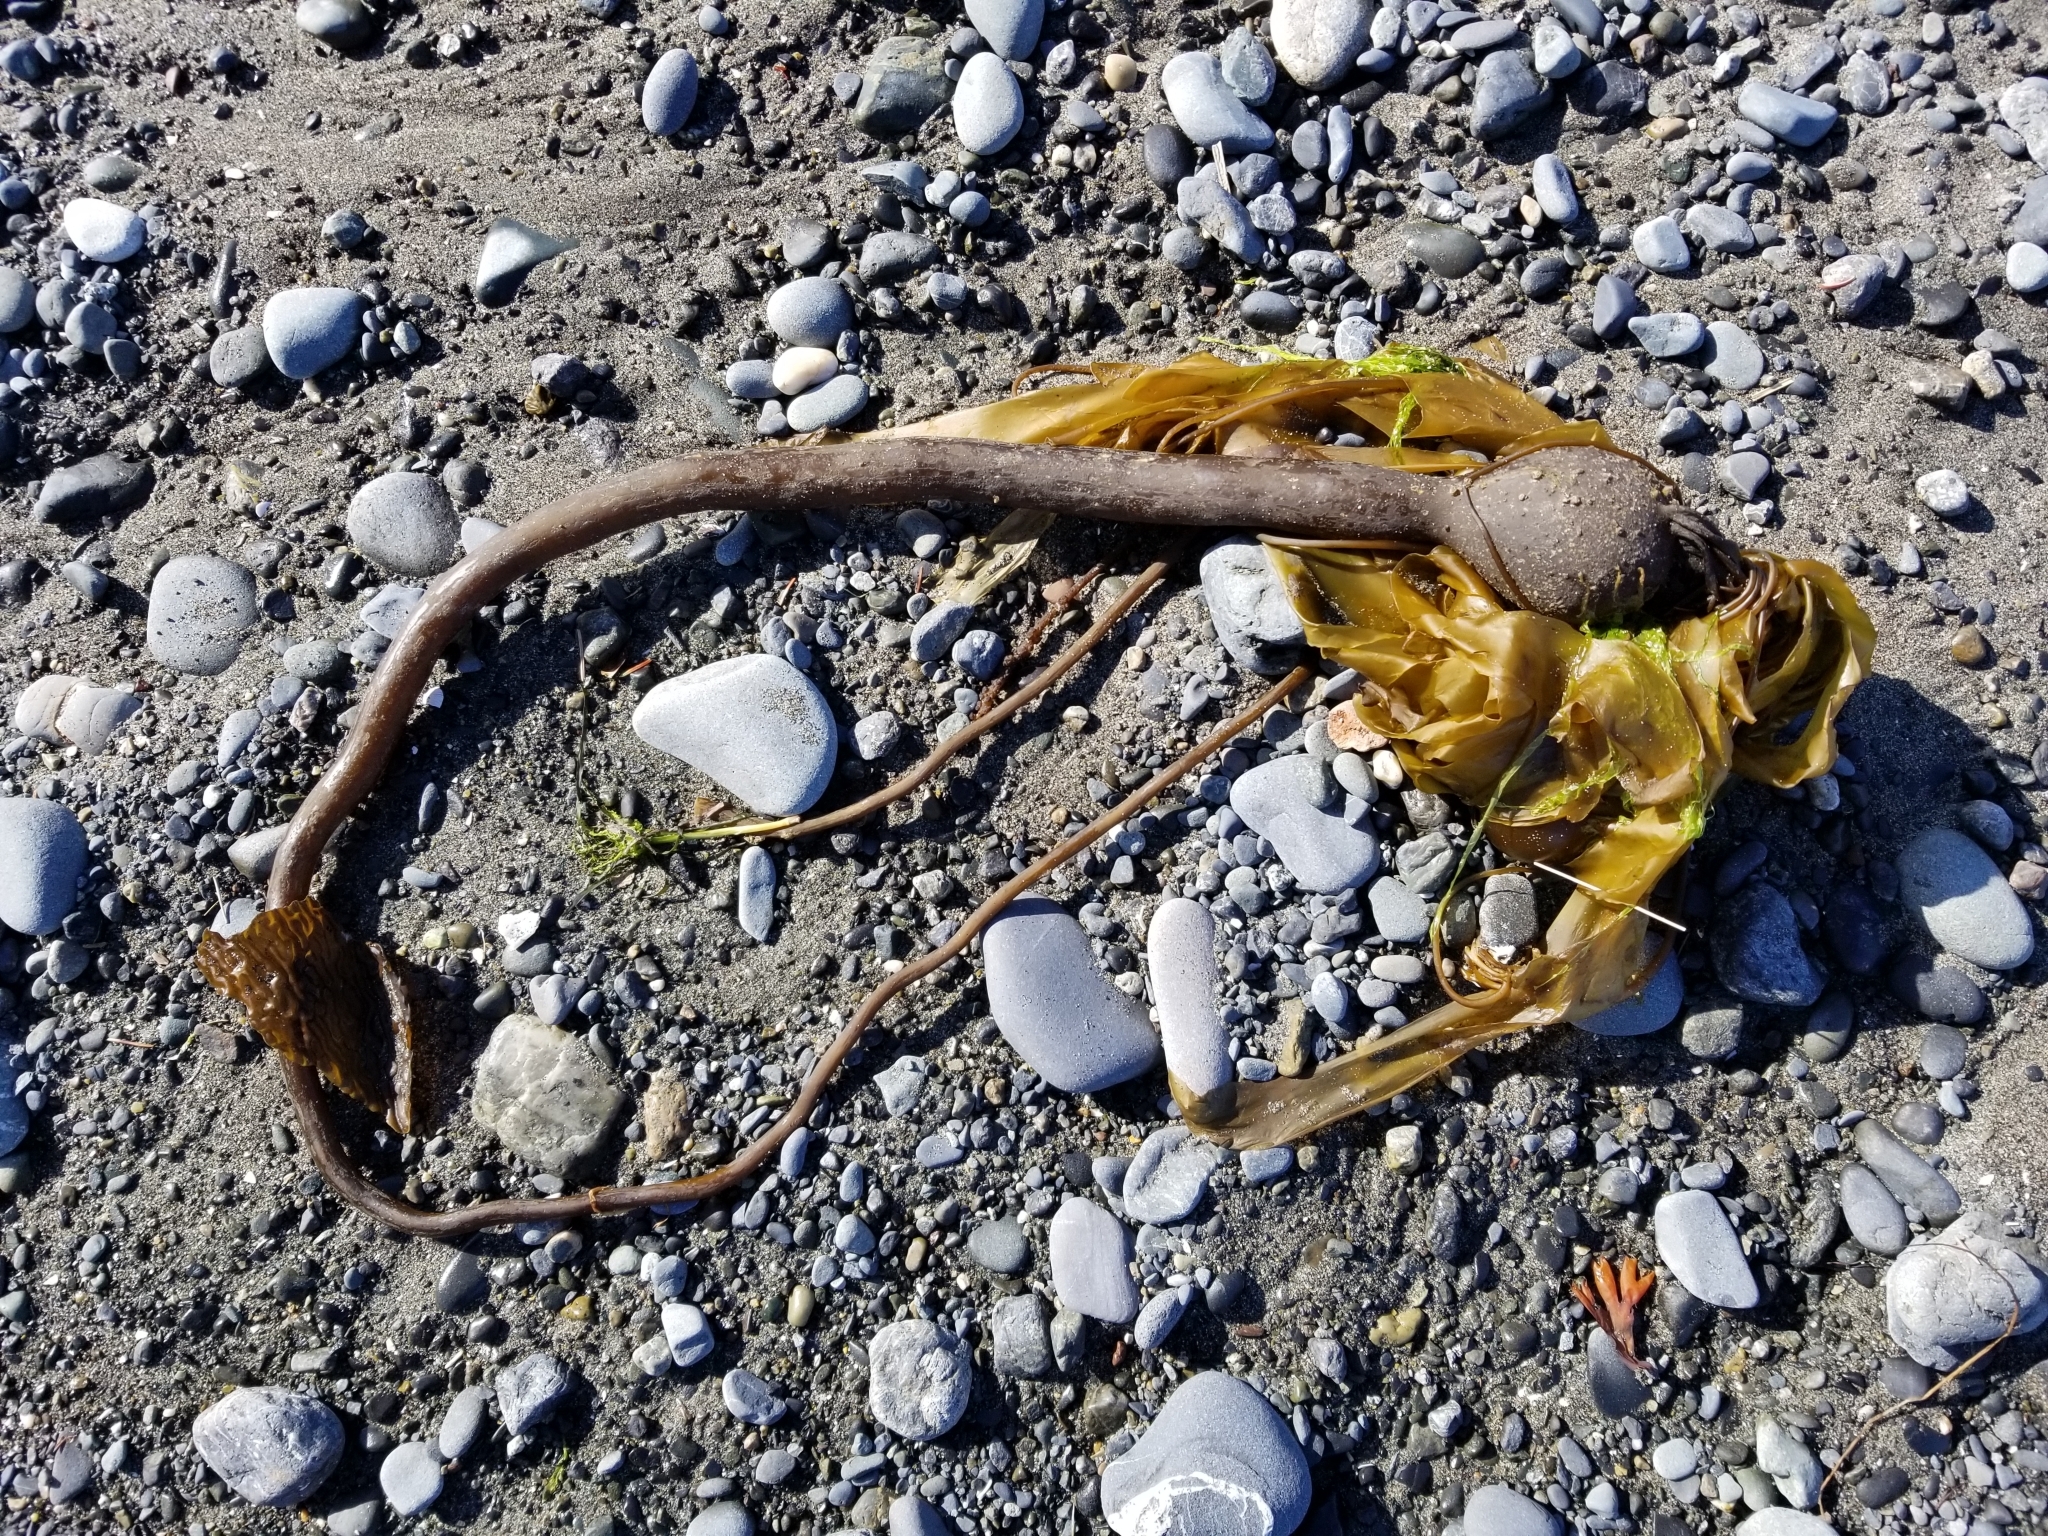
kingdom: Chromista
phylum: Ochrophyta
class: Phaeophyceae
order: Laminariales
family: Laminariaceae
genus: Nereocystis
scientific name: Nereocystis luetkeana
